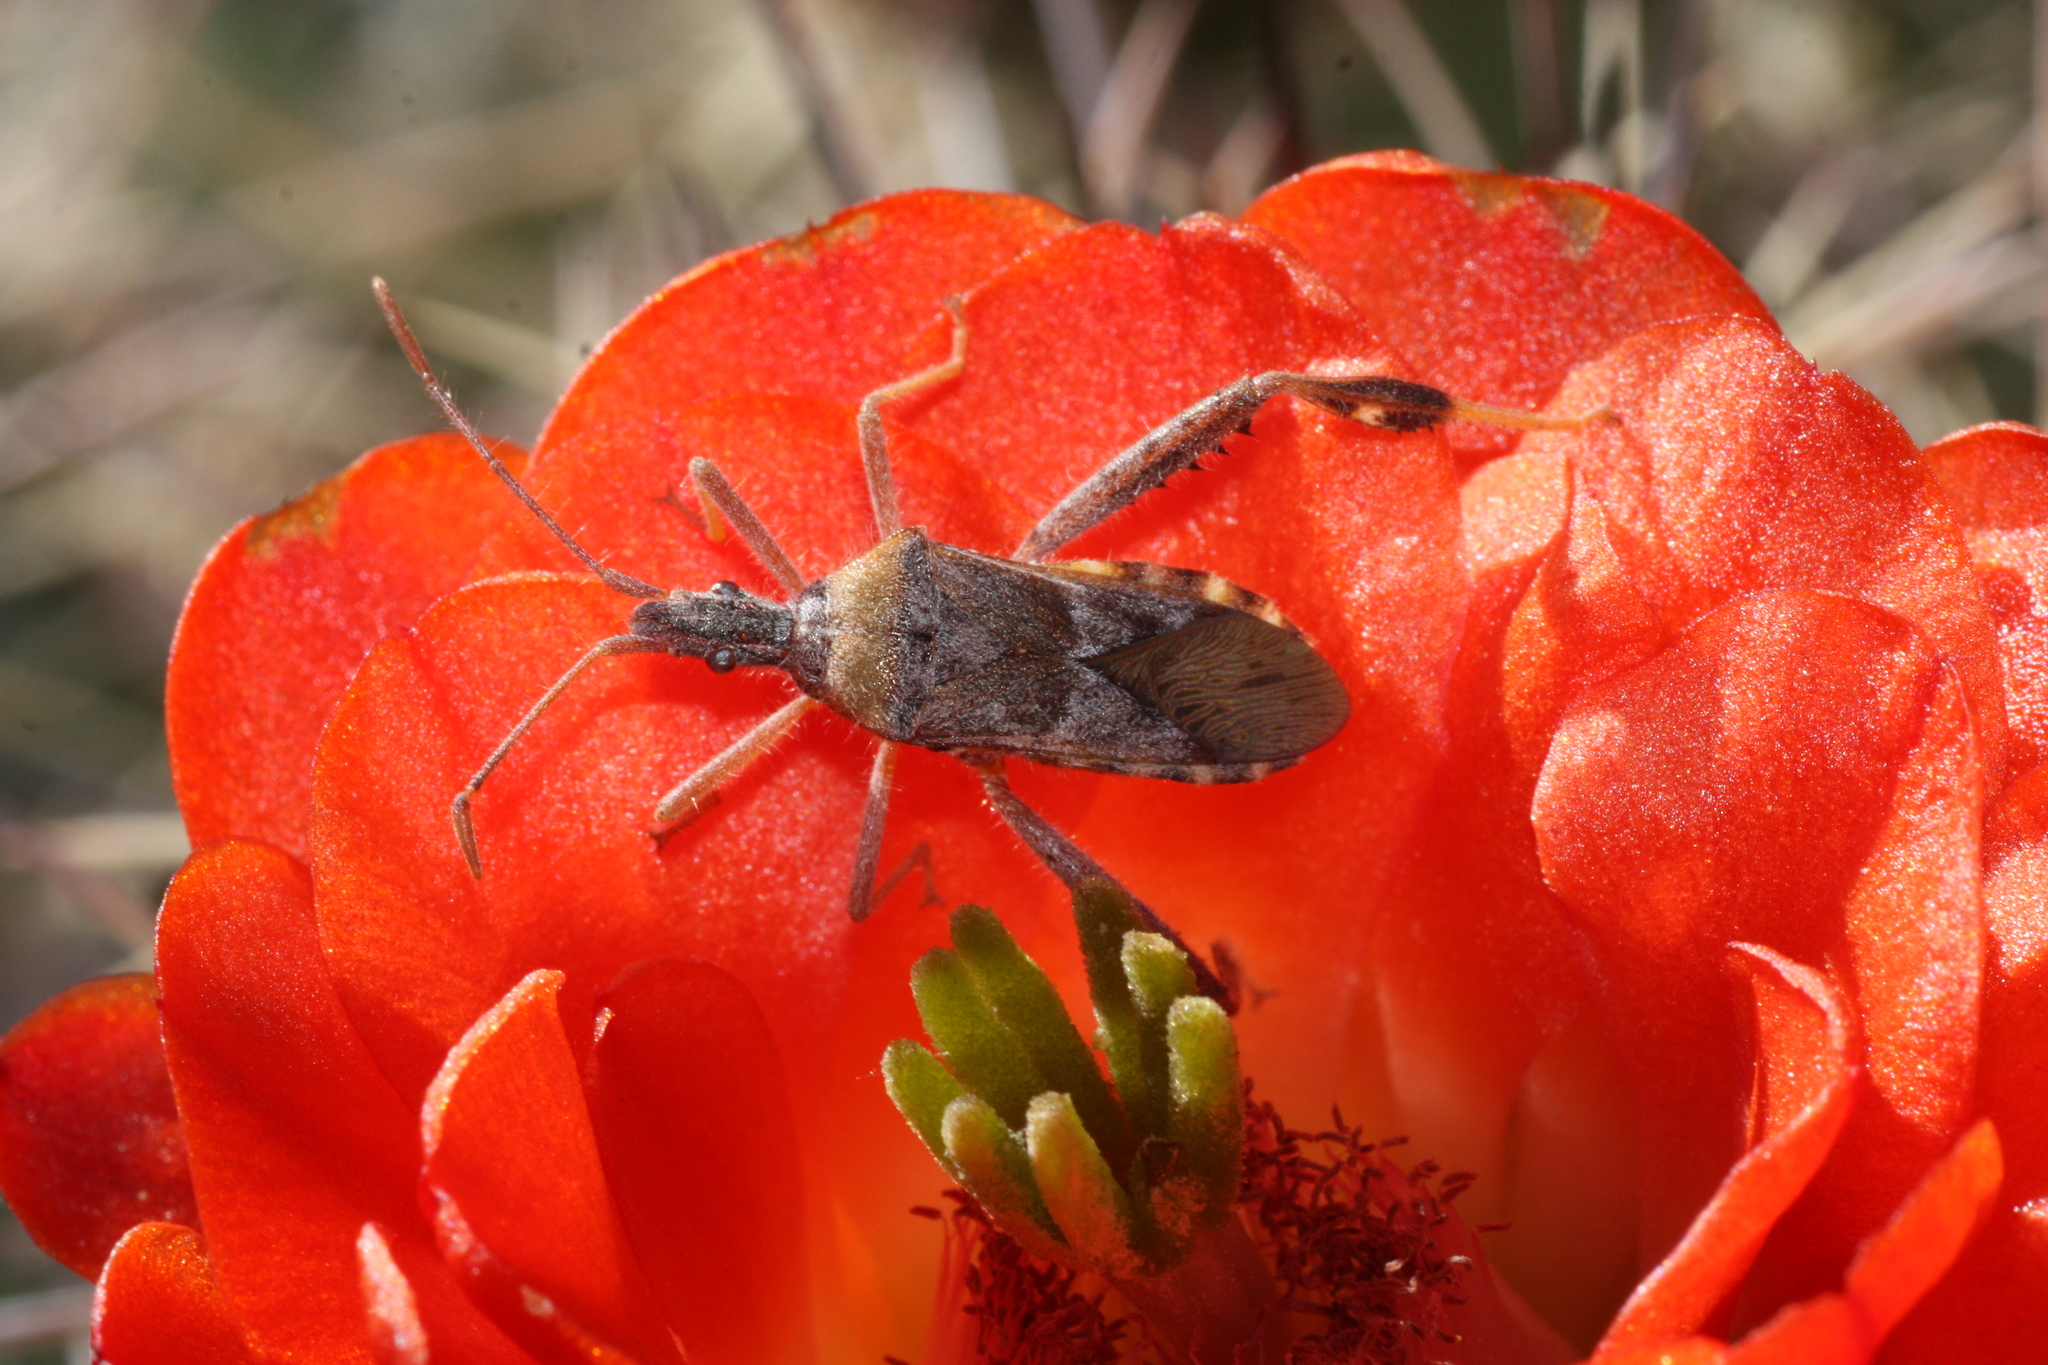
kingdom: Animalia
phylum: Arthropoda
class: Insecta
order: Hemiptera
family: Coreidae
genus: Narnia
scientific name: Narnia femorata
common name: Leaf-footed cactus bug
